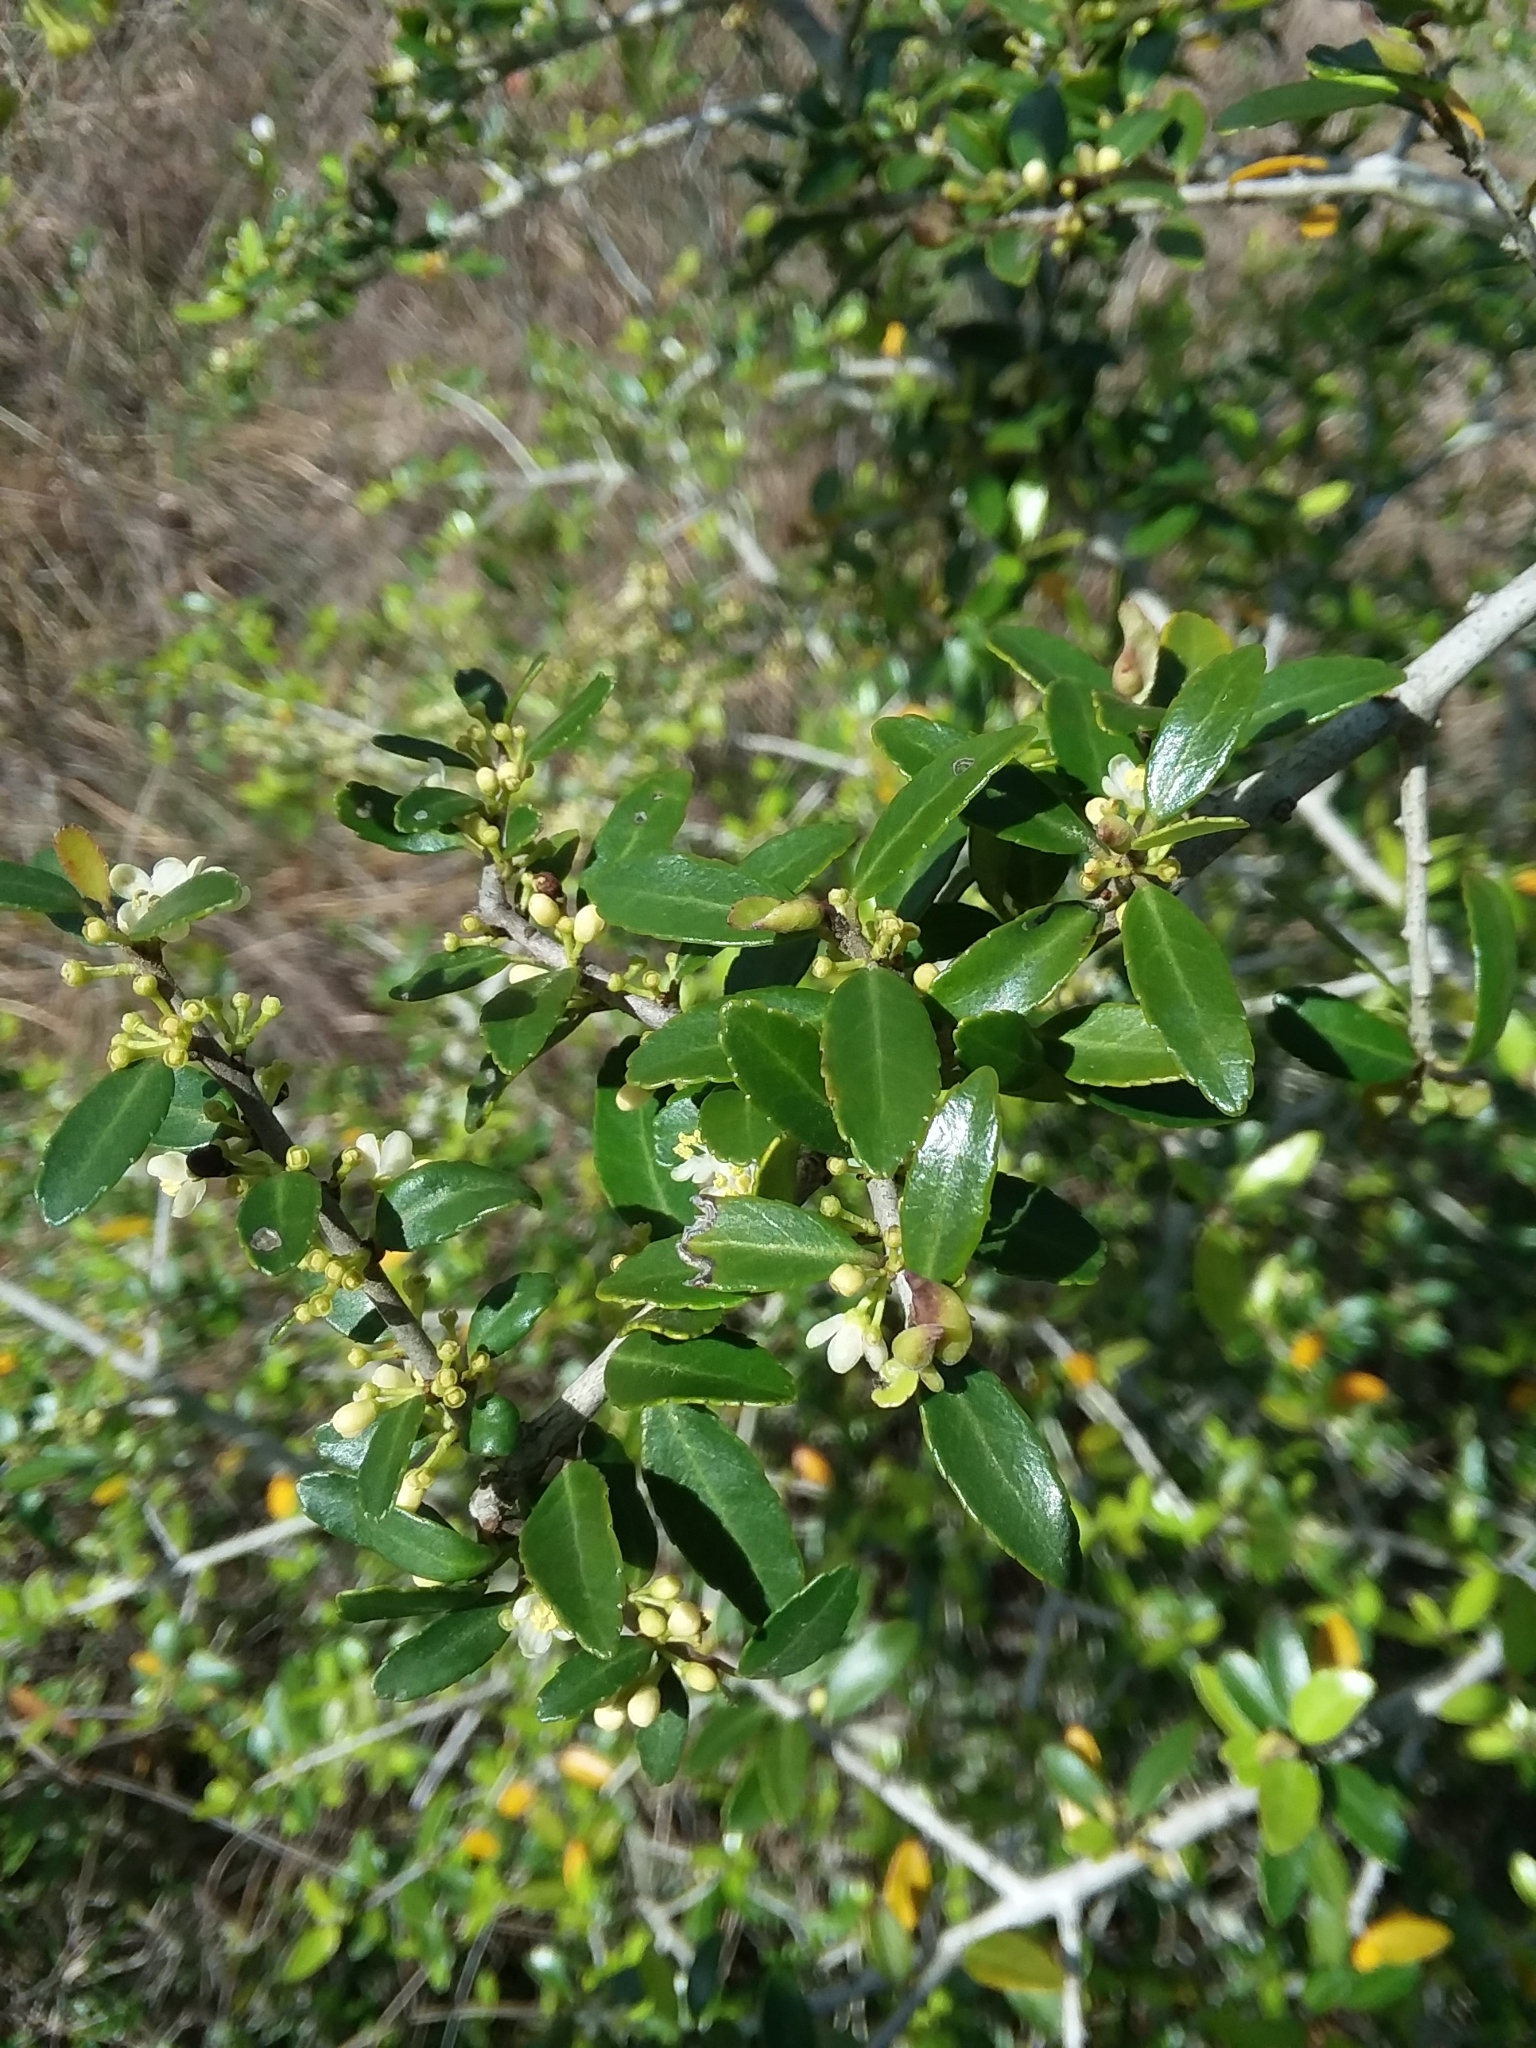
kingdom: Plantae
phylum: Tracheophyta
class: Magnoliopsida
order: Aquifoliales
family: Aquifoliaceae
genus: Ilex
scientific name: Ilex vomitoria
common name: Yaupon holly
